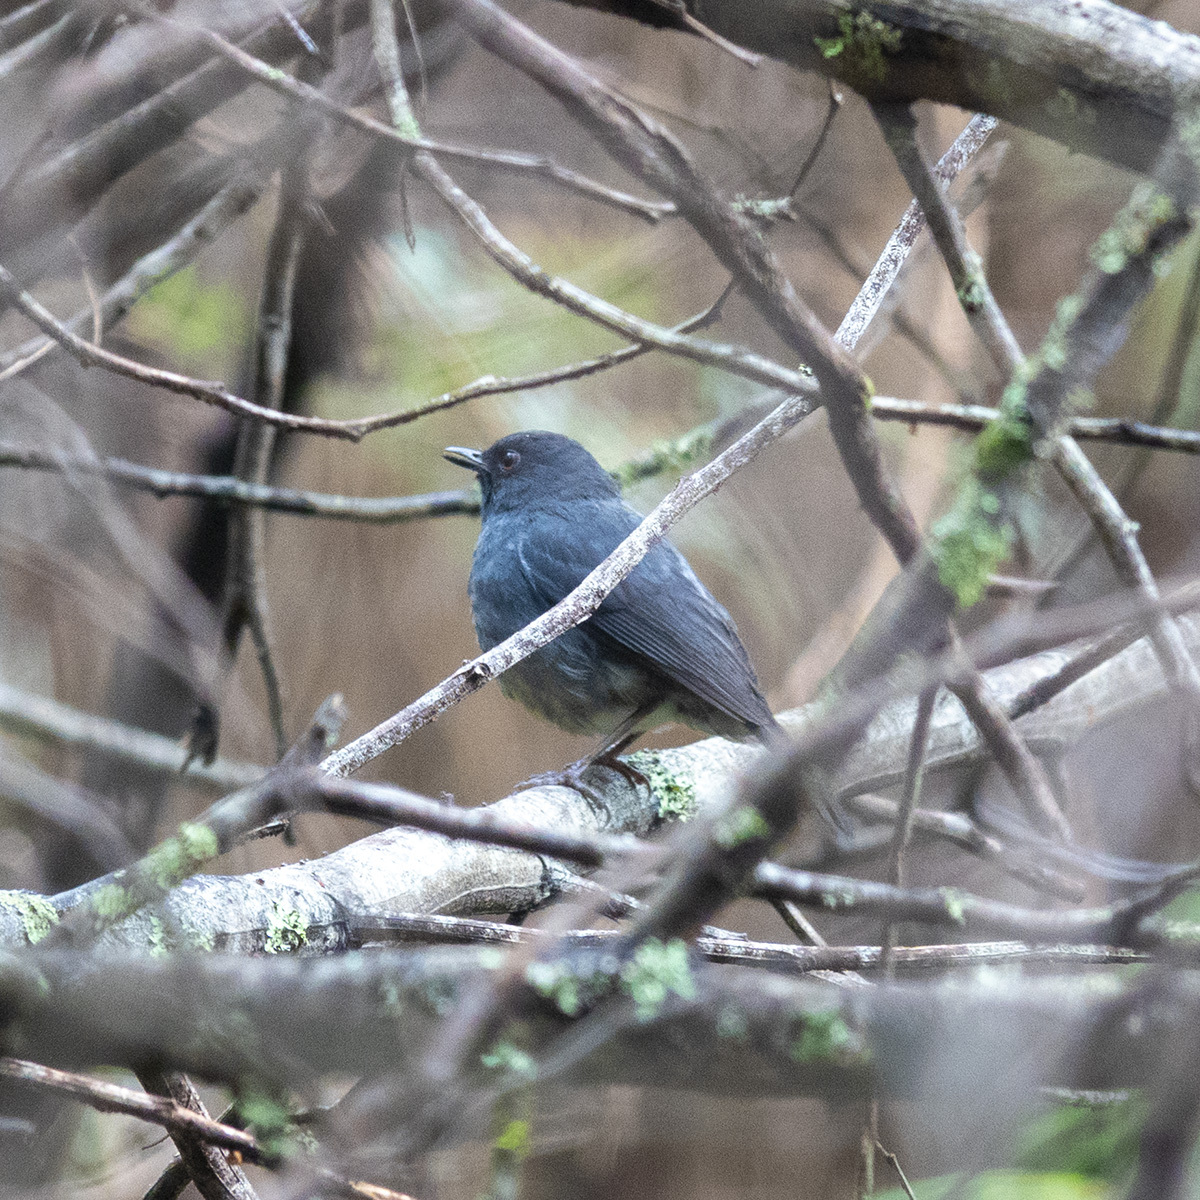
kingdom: Animalia
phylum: Chordata
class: Aves
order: Passeriformes
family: Muscicapidae
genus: Myiomela
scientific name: Myiomela albiventris
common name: White-bellied blue-robin
